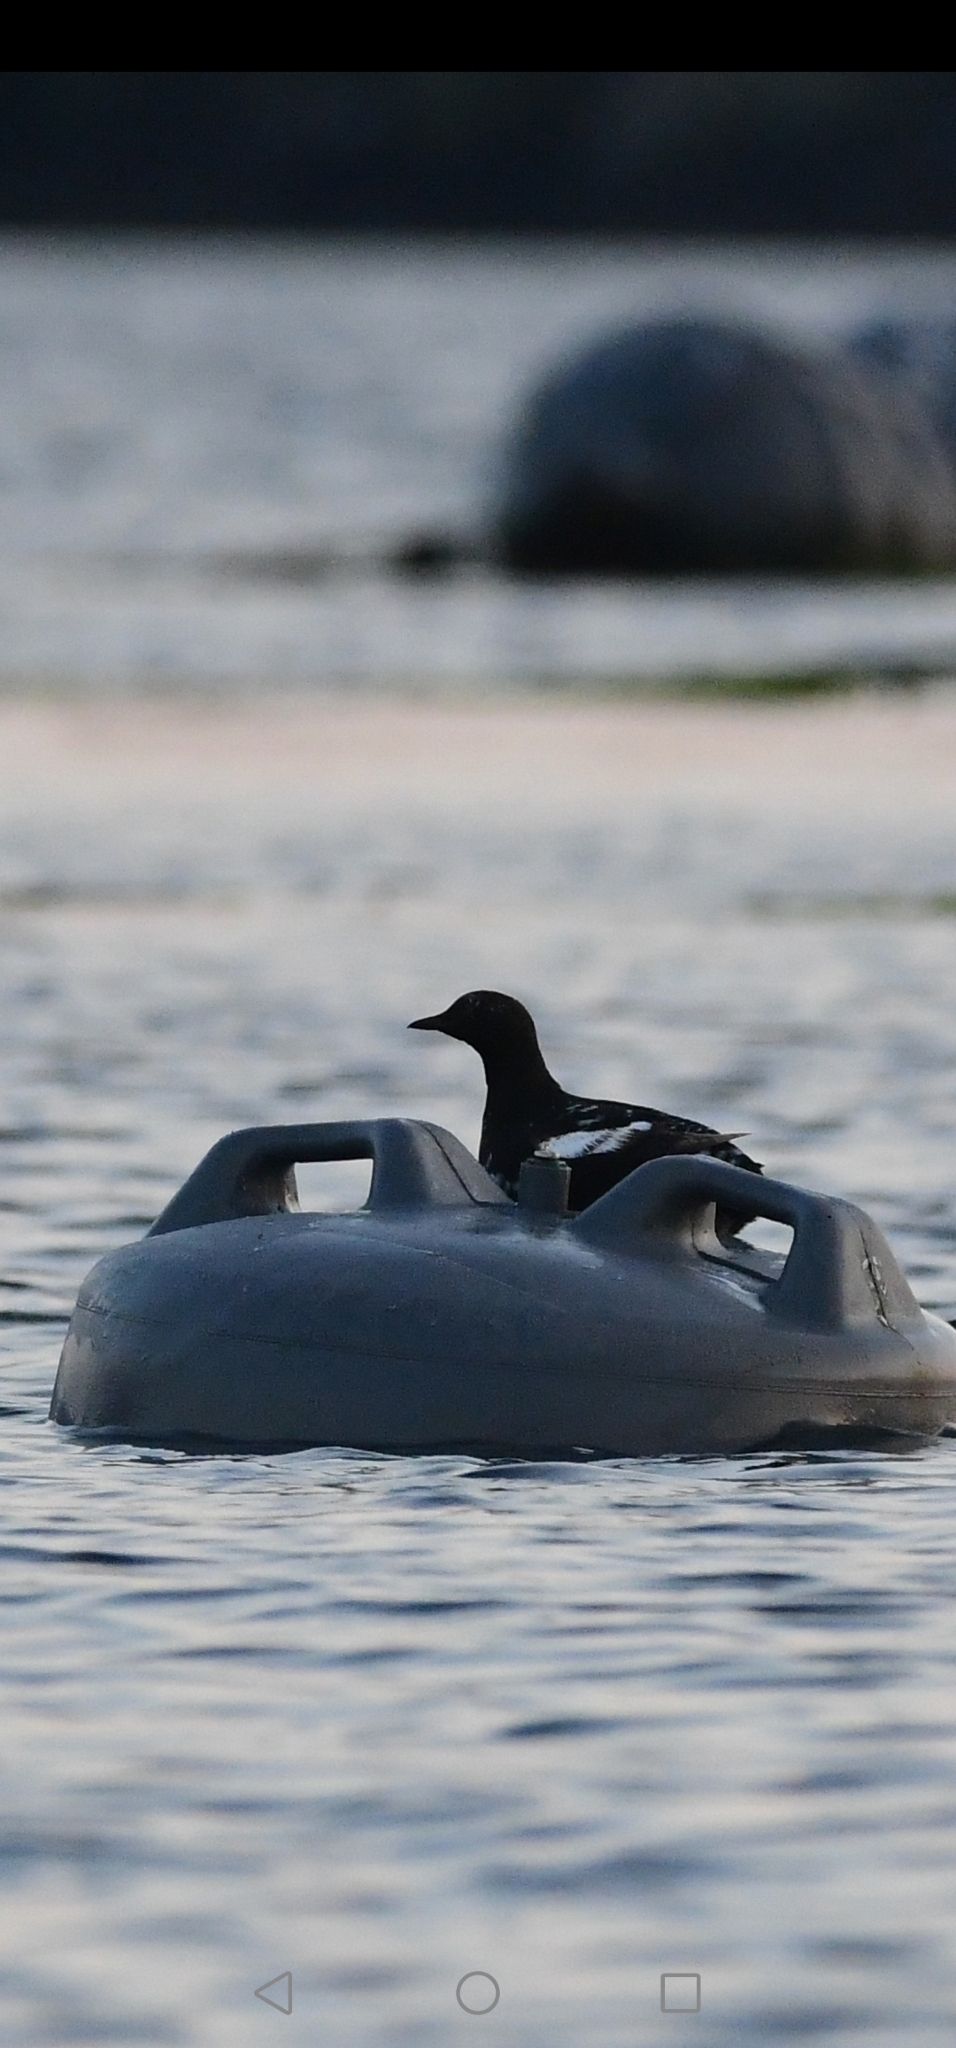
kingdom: Animalia
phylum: Chordata
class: Aves
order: Charadriiformes
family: Alcidae
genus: Cepphus
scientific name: Cepphus grylle
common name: Black guillemot
